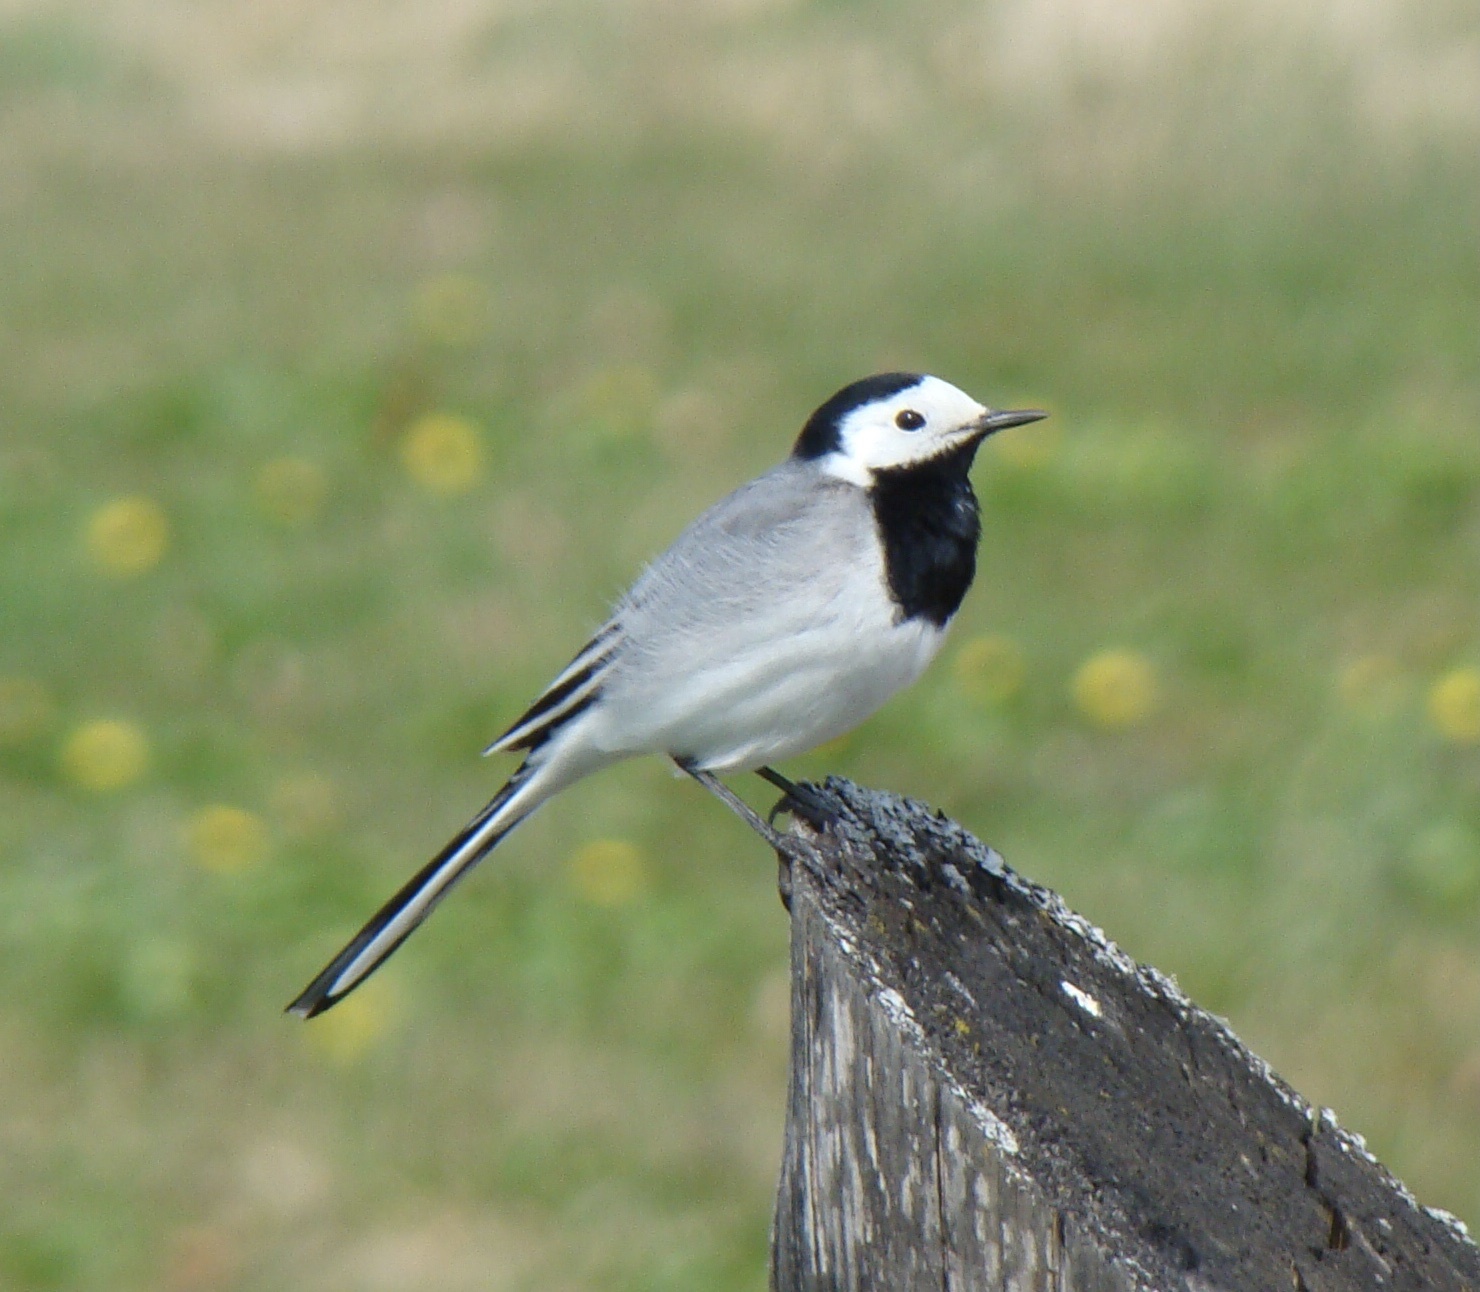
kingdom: Animalia
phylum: Chordata
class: Aves
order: Passeriformes
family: Motacillidae
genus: Motacilla
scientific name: Motacilla alba
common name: White wagtail
